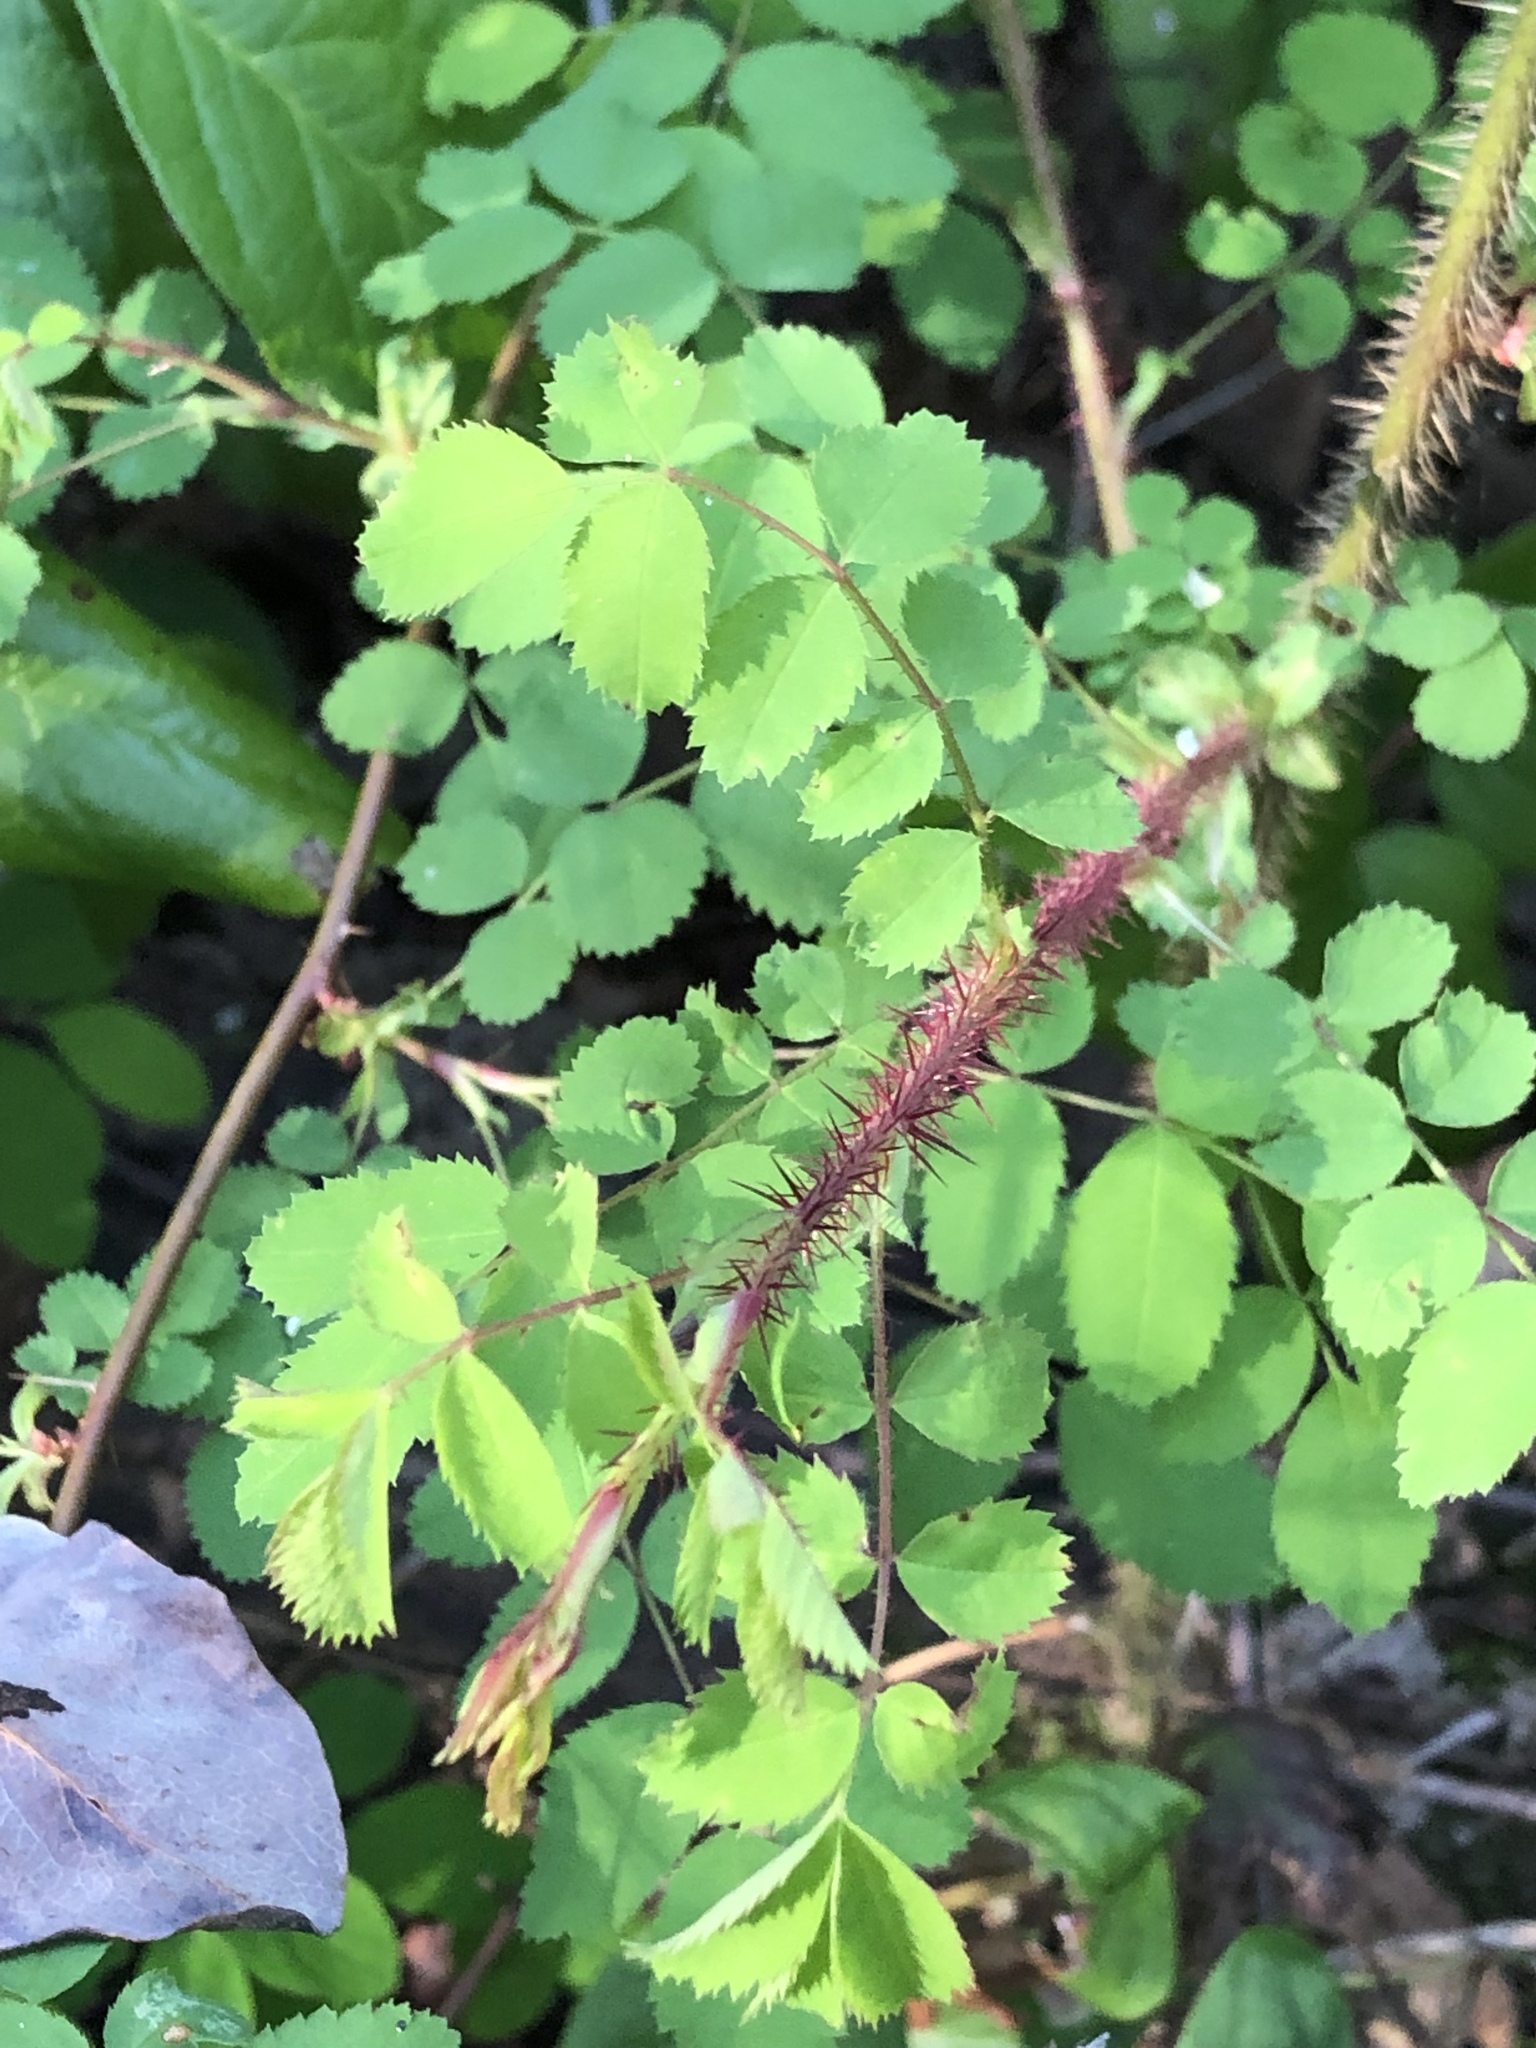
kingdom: Plantae
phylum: Tracheophyta
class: Magnoliopsida
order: Rosales
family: Rosaceae
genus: Rosa
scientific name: Rosa gymnocarpa
